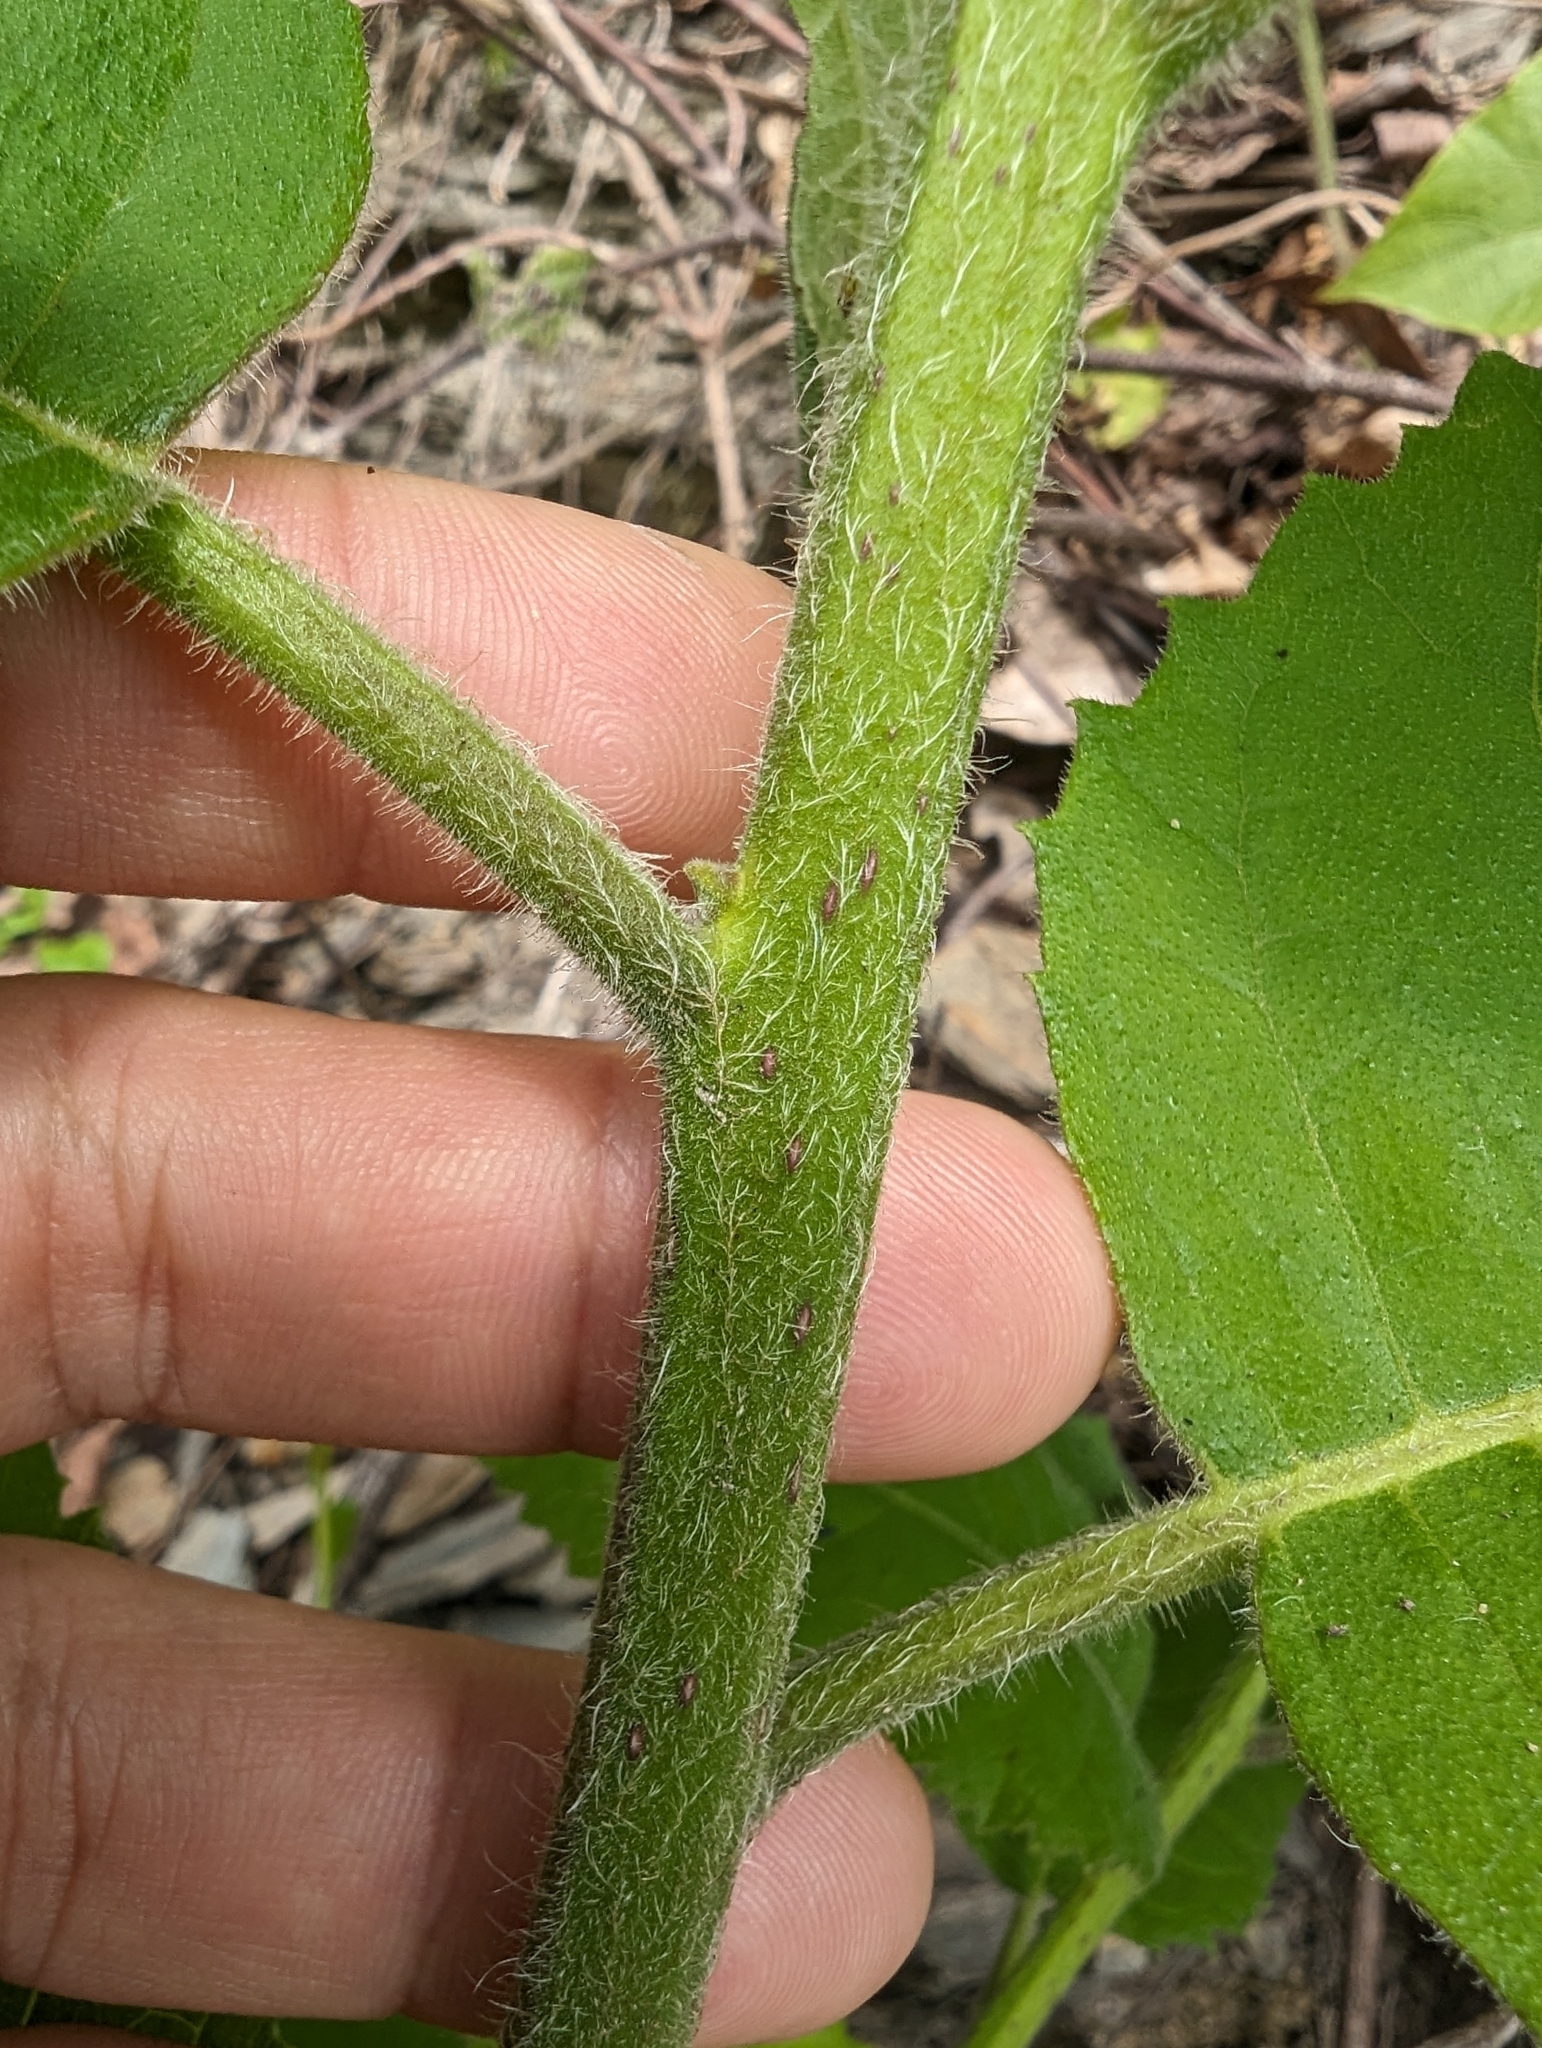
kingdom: Plantae
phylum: Tracheophyta
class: Magnoliopsida
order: Boraginales
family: Ehretiaceae
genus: Ehretia
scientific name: Ehretia dicksonii
